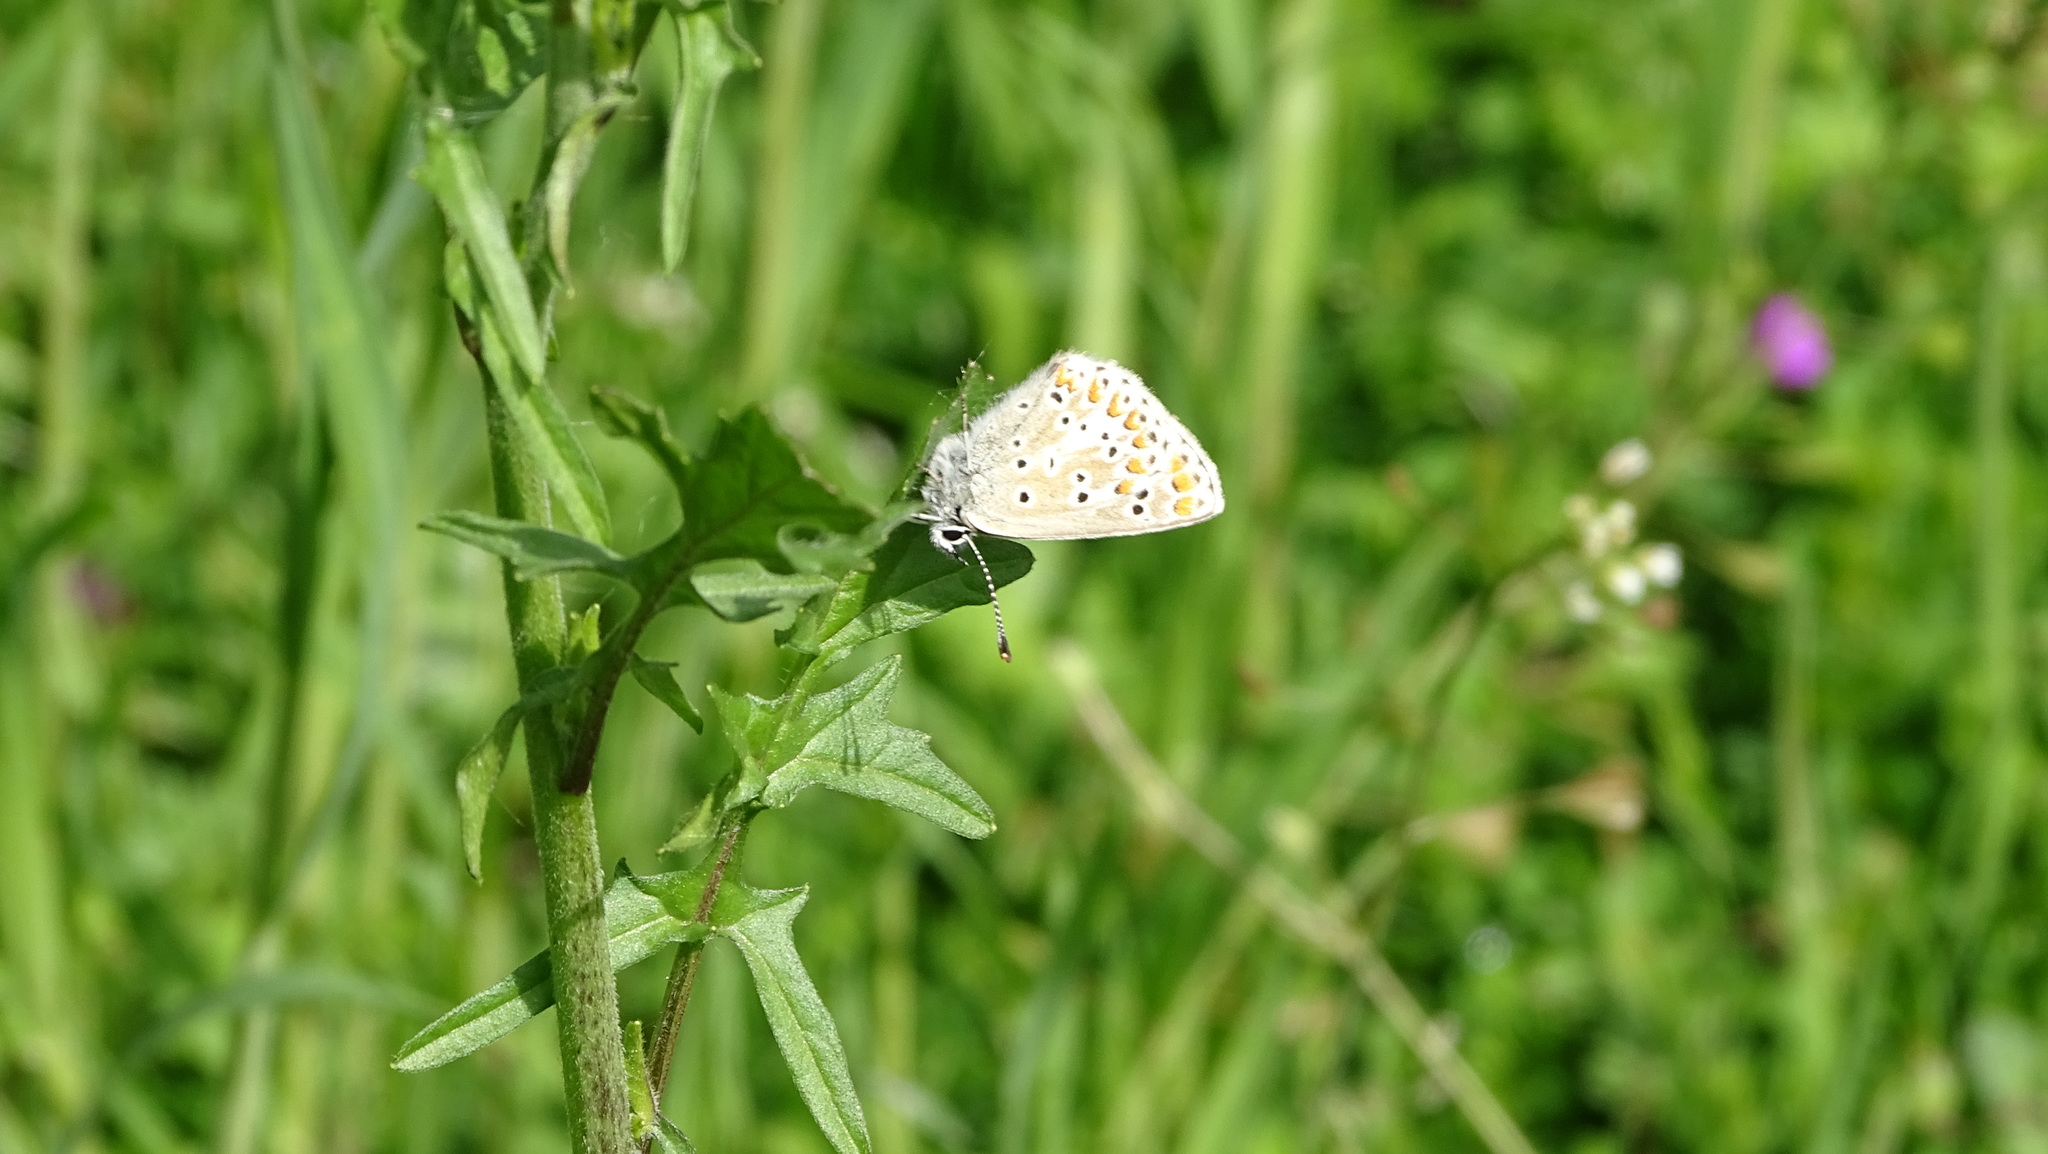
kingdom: Animalia
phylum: Arthropoda
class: Insecta
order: Lepidoptera
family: Lycaenidae
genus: Aricia
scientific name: Aricia agestis
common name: Brown argus
